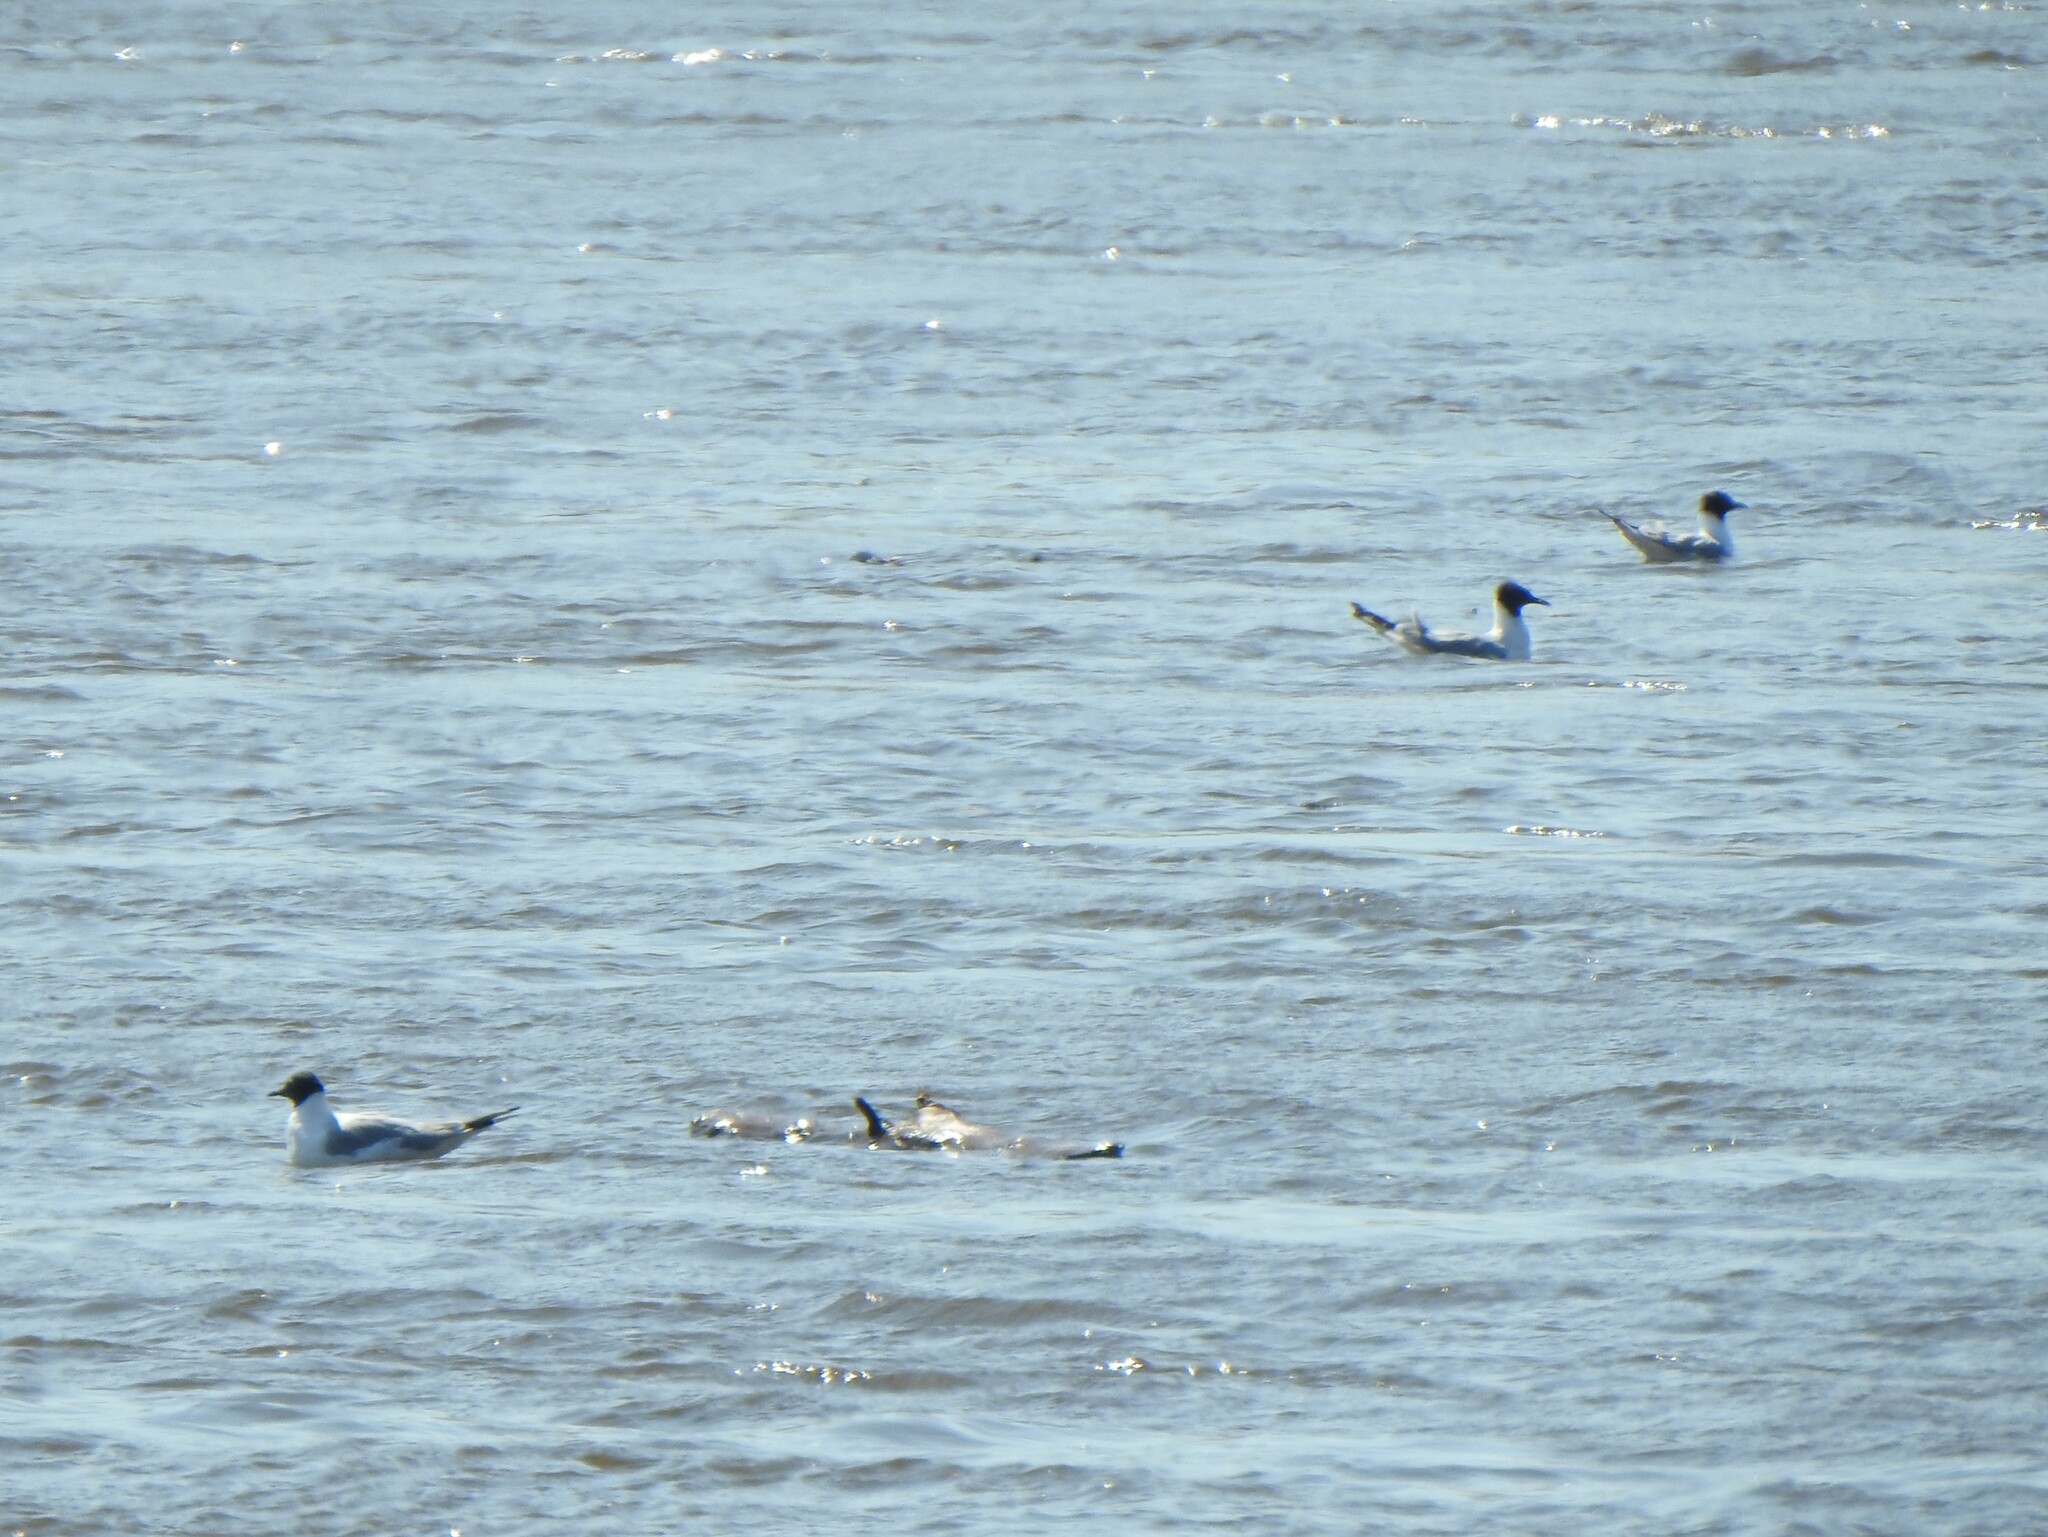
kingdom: Animalia
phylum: Chordata
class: Aves
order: Charadriiformes
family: Laridae
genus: Chroicocephalus
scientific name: Chroicocephalus philadelphia
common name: Bonaparte's gull
